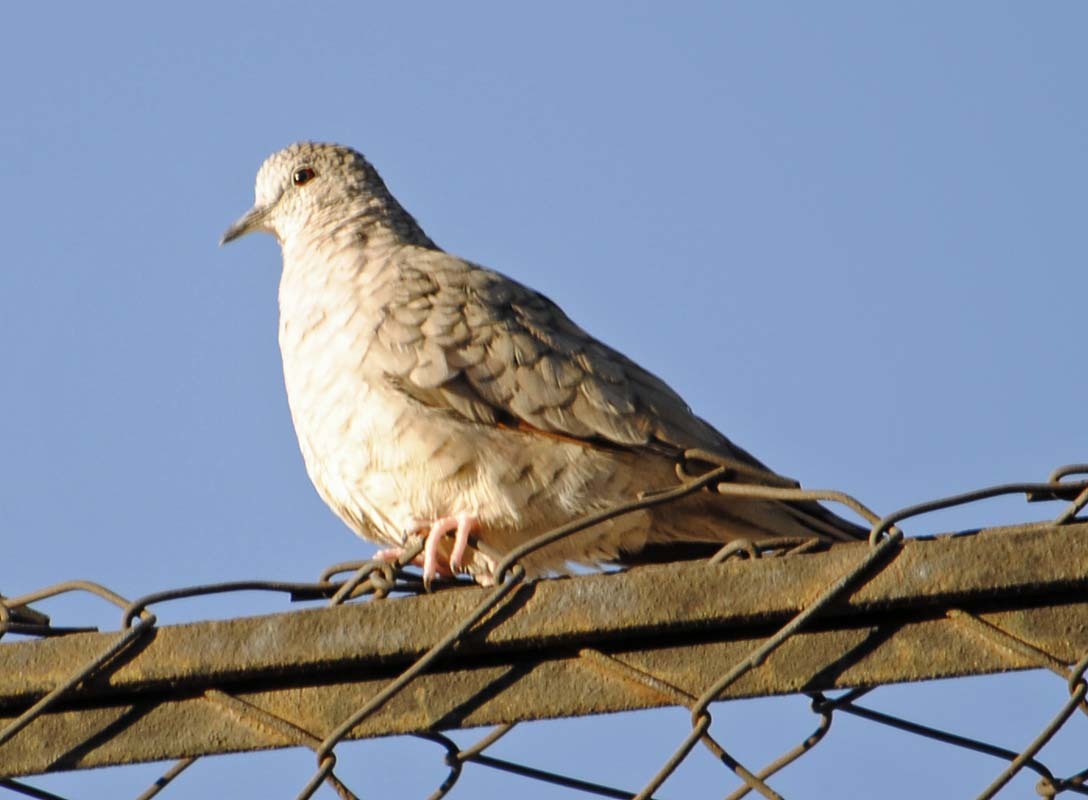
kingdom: Animalia
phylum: Chordata
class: Aves
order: Columbiformes
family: Columbidae
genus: Columbina
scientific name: Columbina inca
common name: Inca dove
